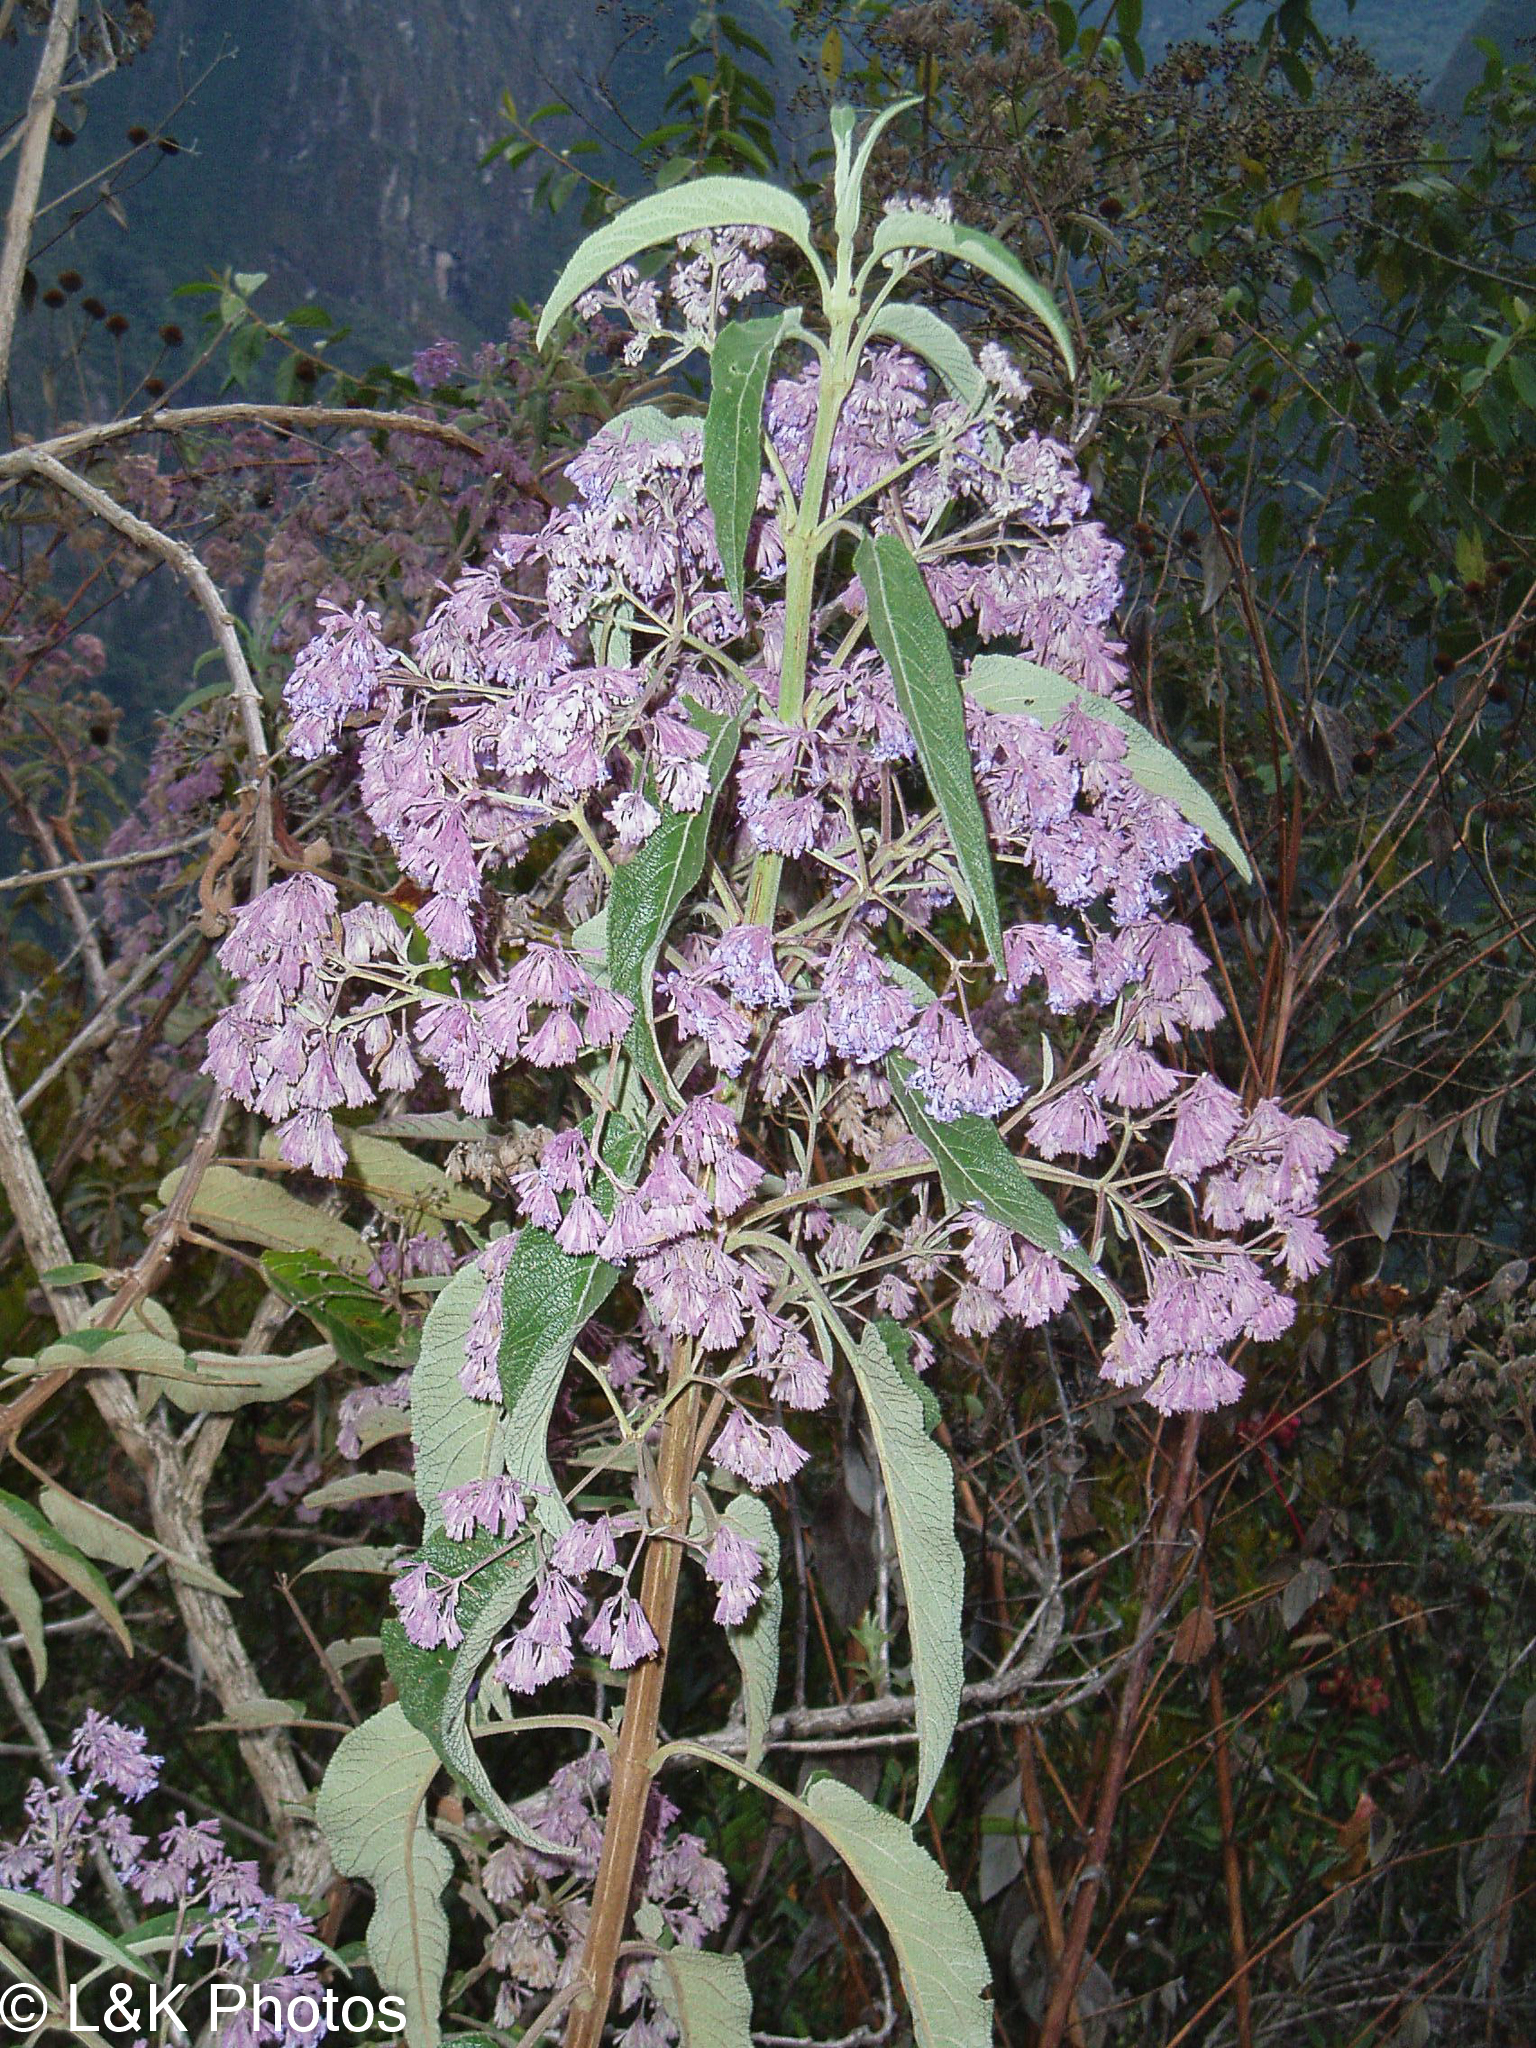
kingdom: Plantae
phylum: Tracheophyta
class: Magnoliopsida
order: Lamiales
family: Lamiaceae
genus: Condea
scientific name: Condea tafallae
